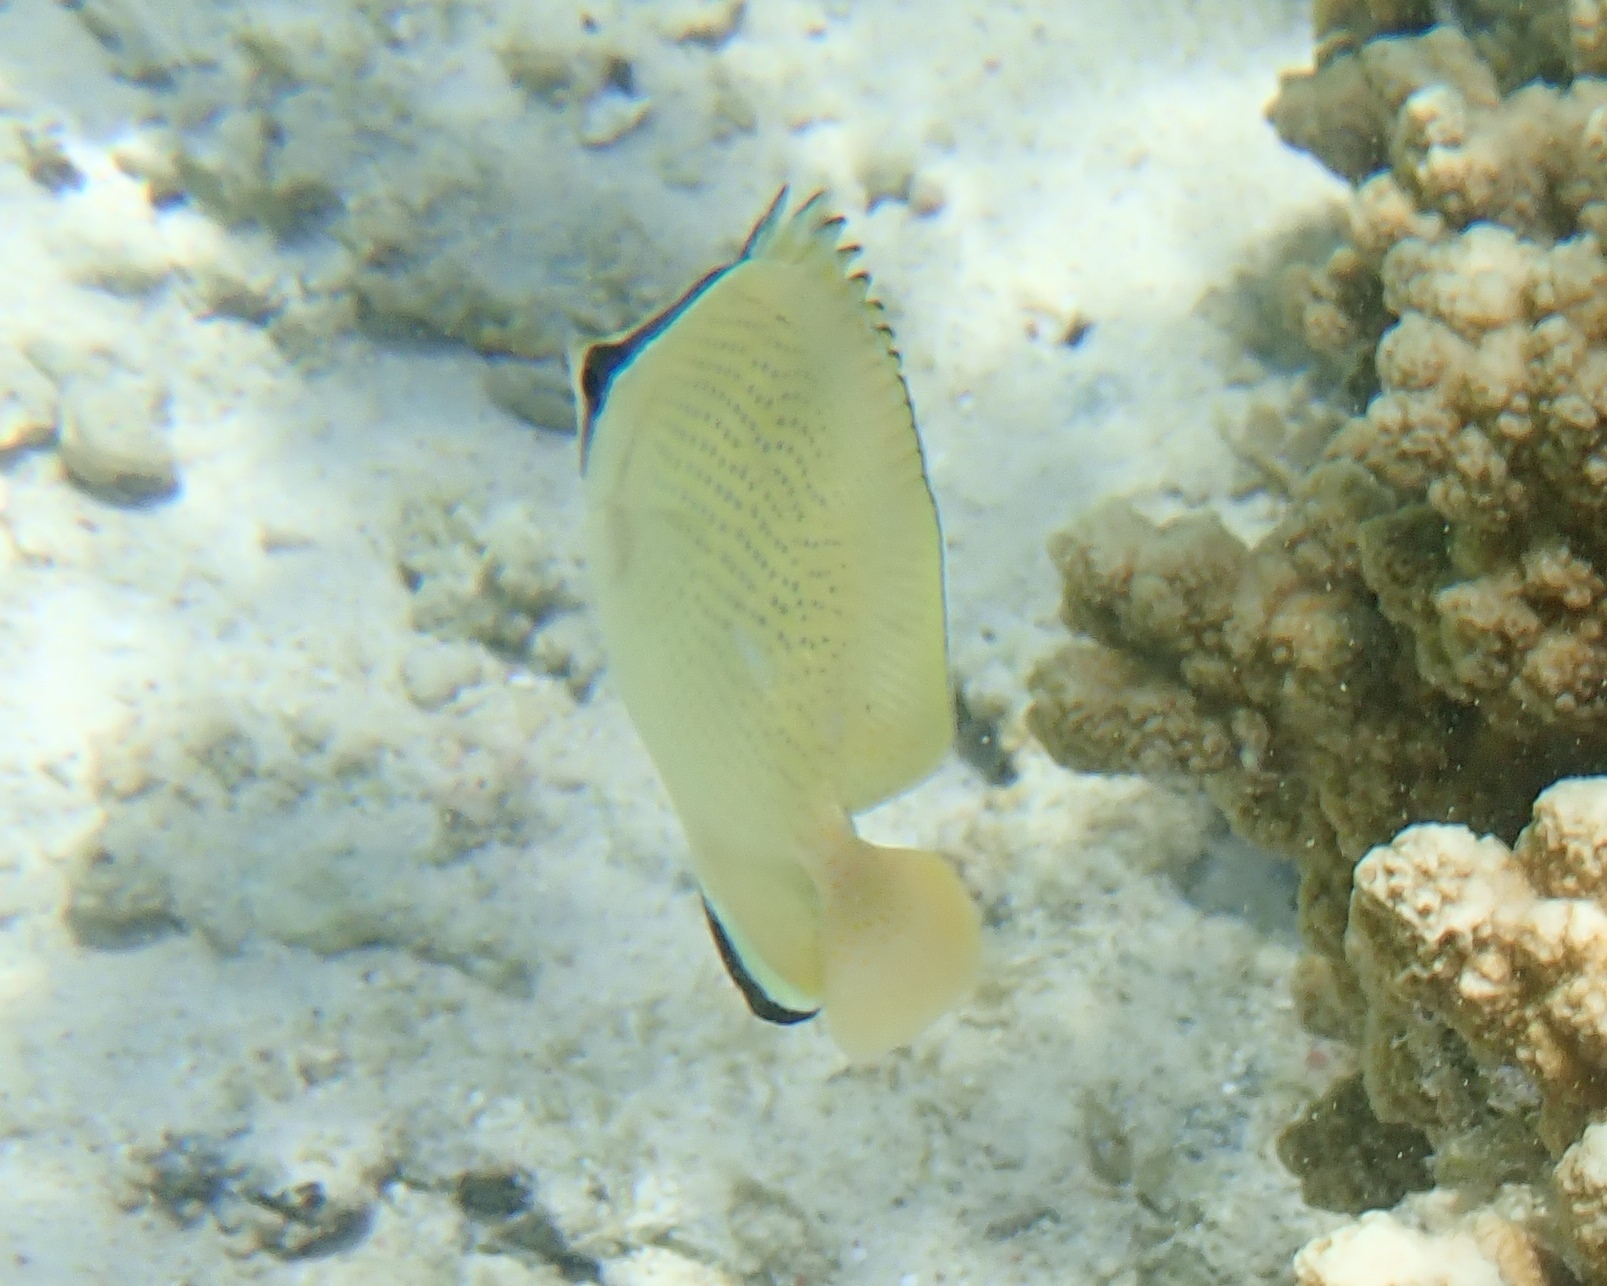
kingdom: Animalia
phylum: Chordata
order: Perciformes
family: Chaetodontidae
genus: Chaetodon
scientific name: Chaetodon citrinellus
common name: Speckled butterflyfish
